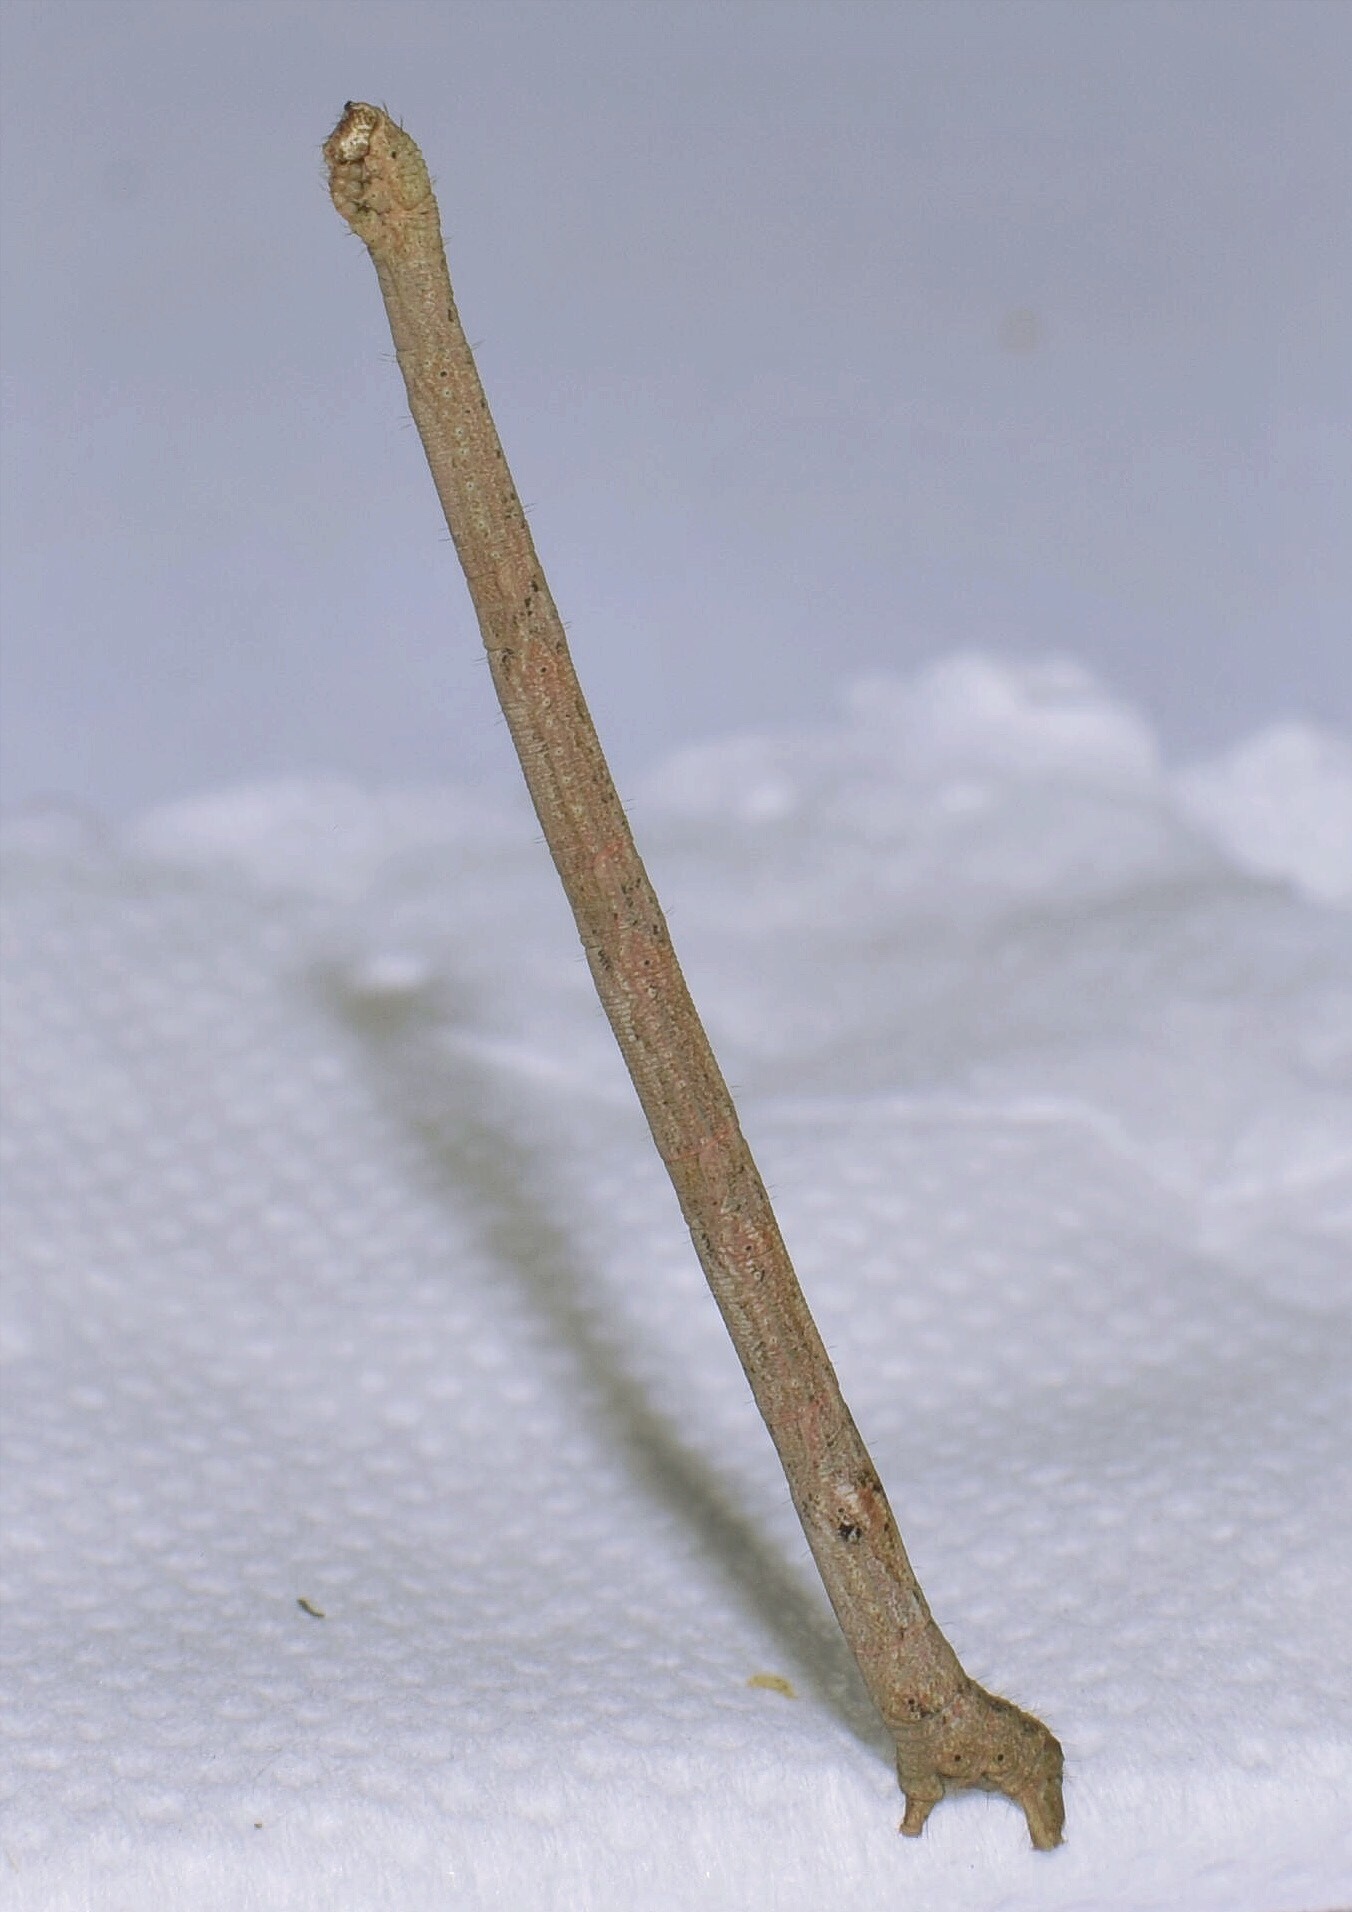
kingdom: Animalia
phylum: Arthropoda
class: Insecta
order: Lepidoptera
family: Geometridae
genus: Scopula
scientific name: Scopula accentuata
